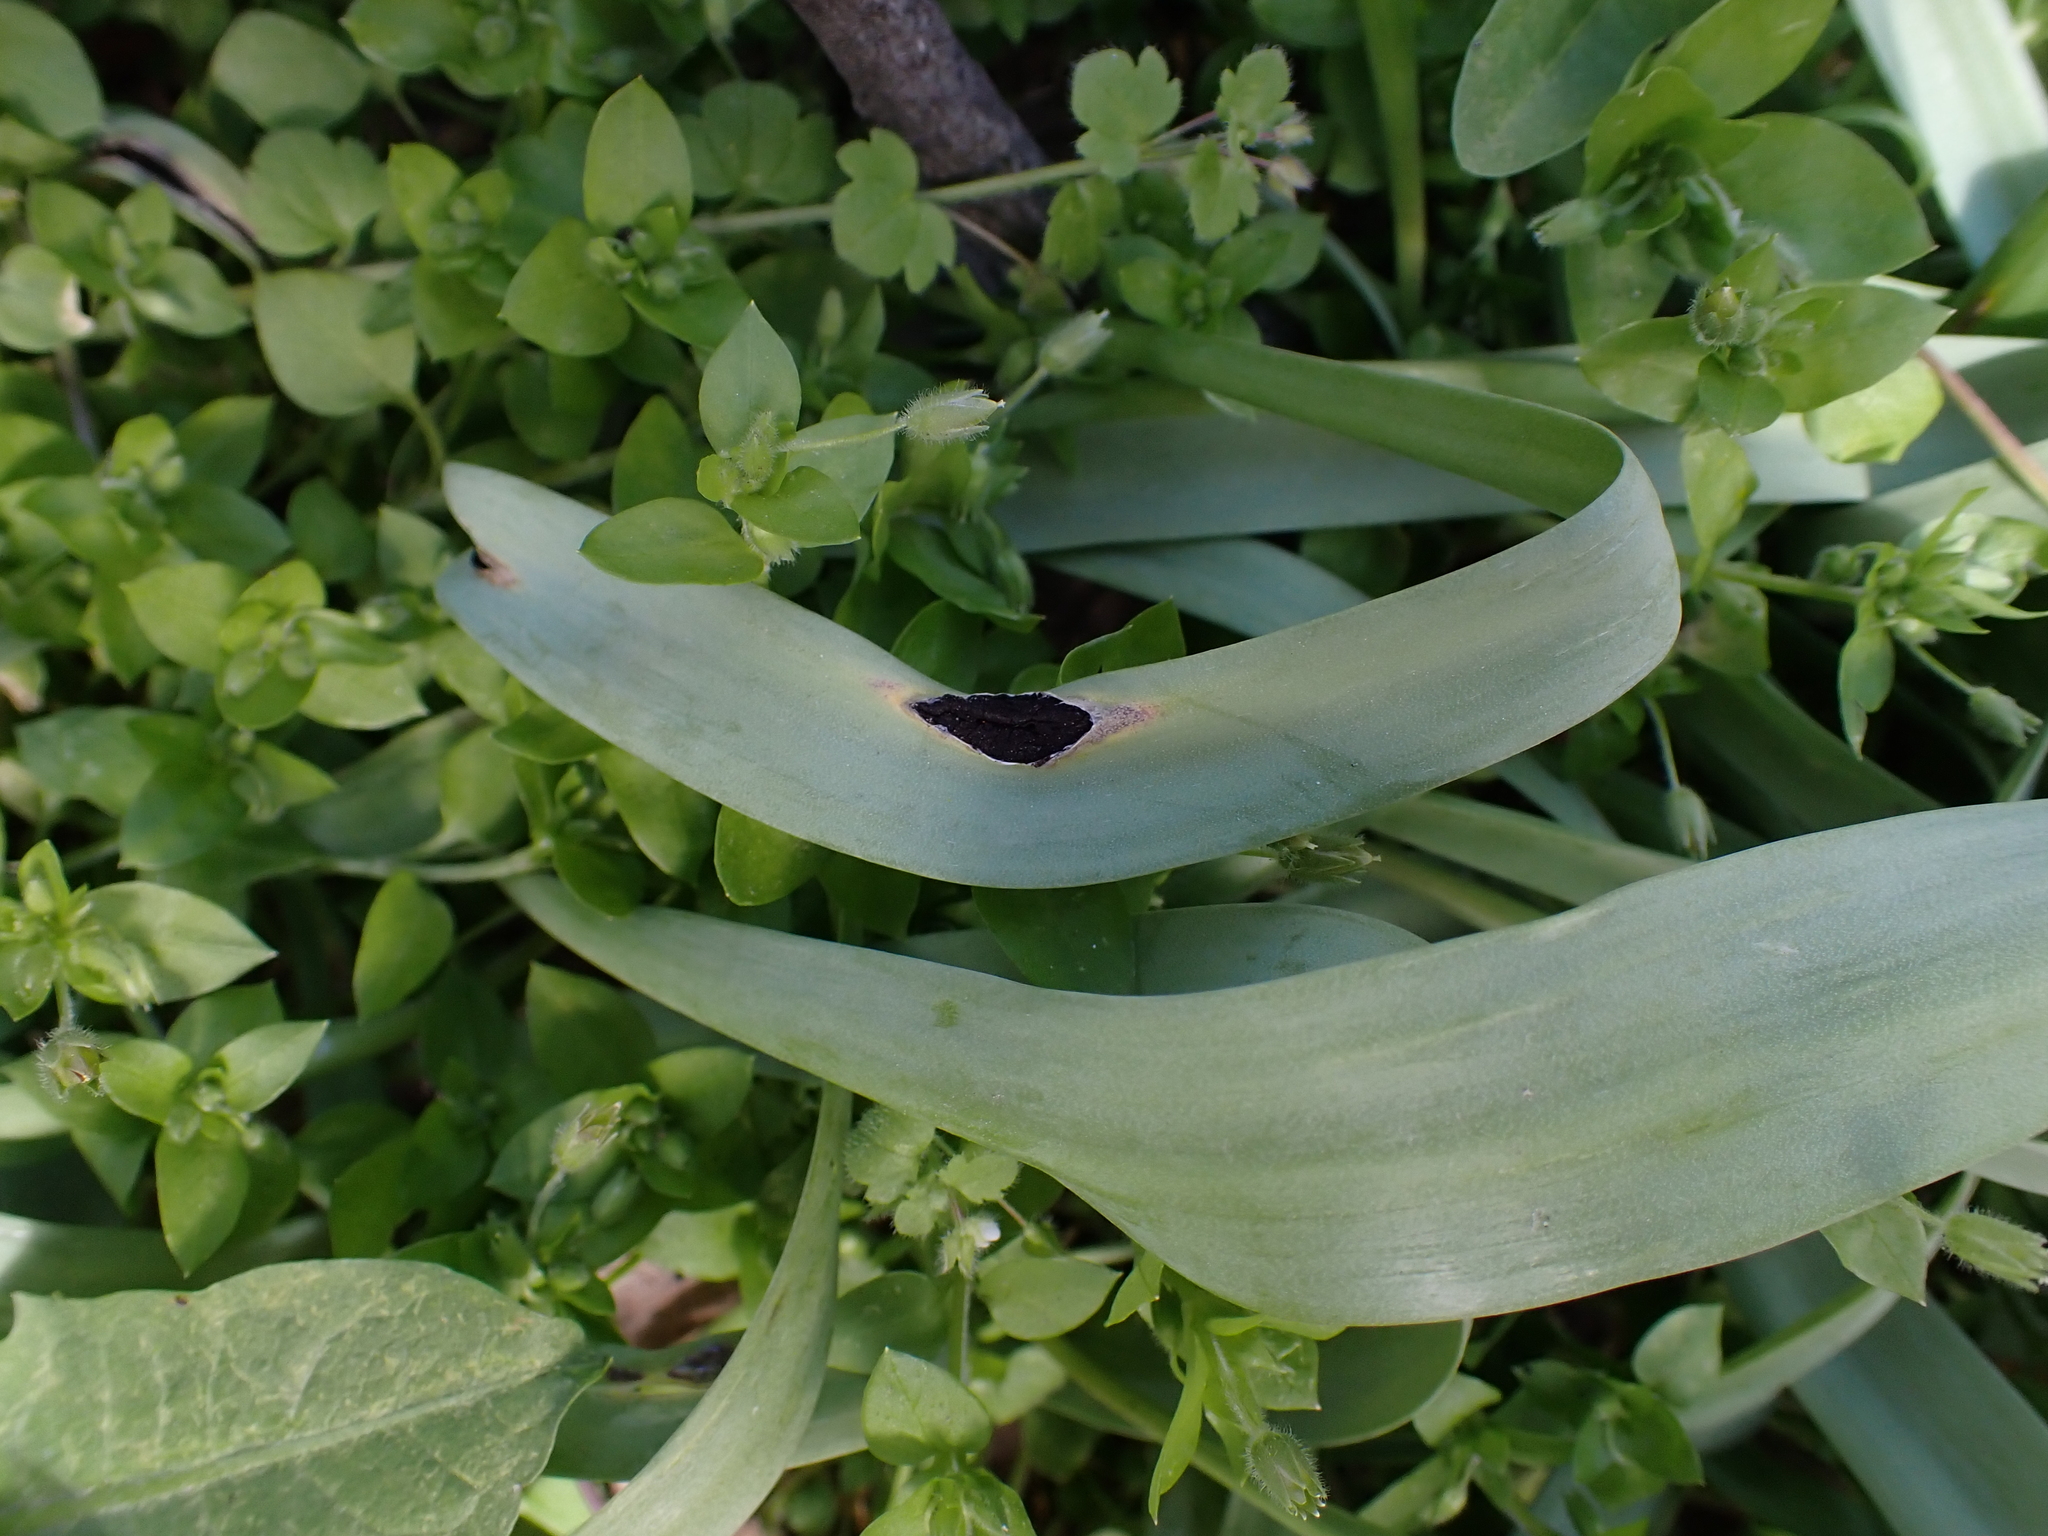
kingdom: Fungi
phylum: Basidiomycota
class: Ustilaginomycetes
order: Urocystidales
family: Urocystidaceae
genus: Vankya
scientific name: Vankya heufleri
